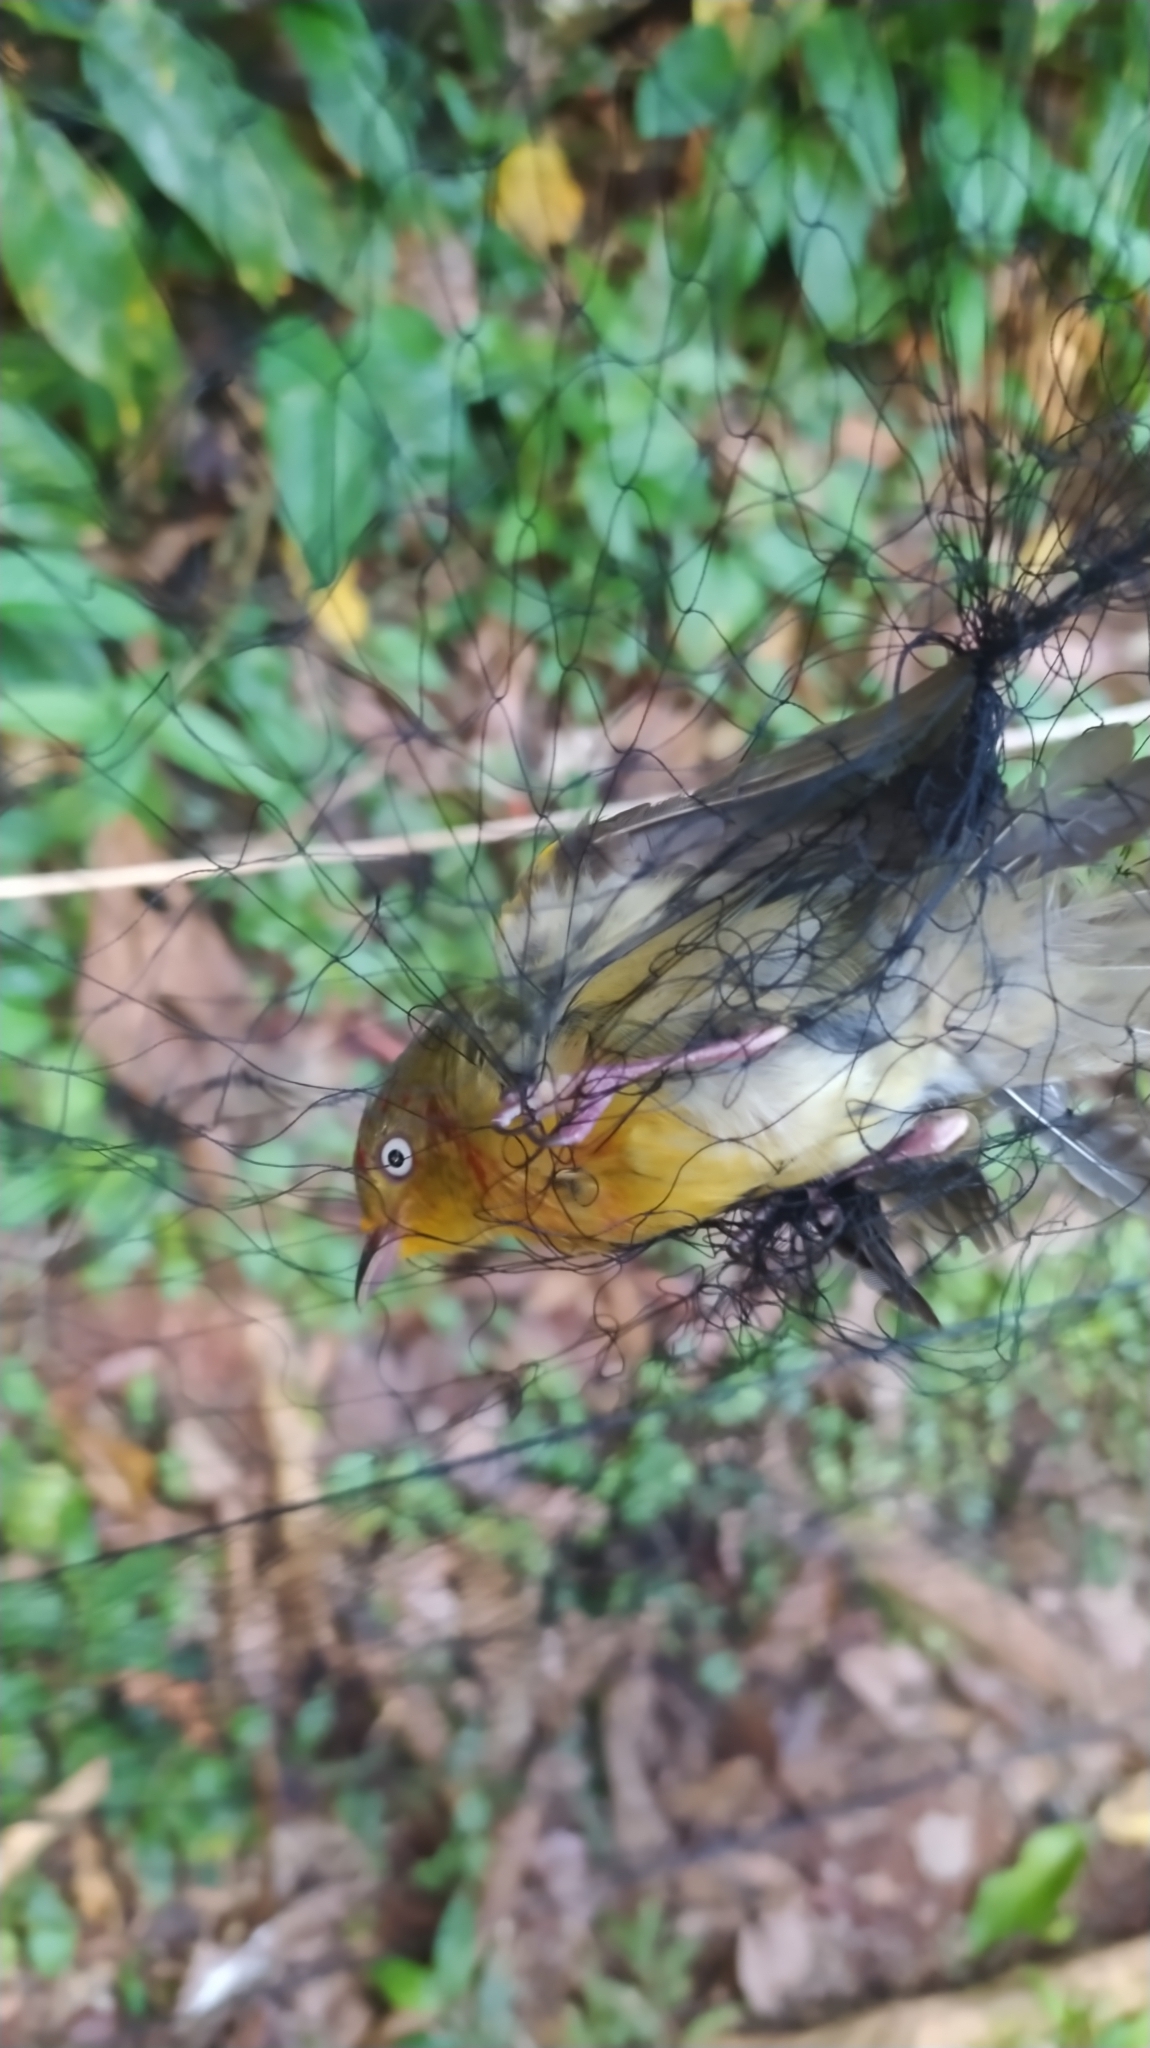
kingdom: Animalia
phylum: Chordata
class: Aves
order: Passeriformes
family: Pipridae
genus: Pipra
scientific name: Pipra aureola
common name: Crimson-hooded manakin
